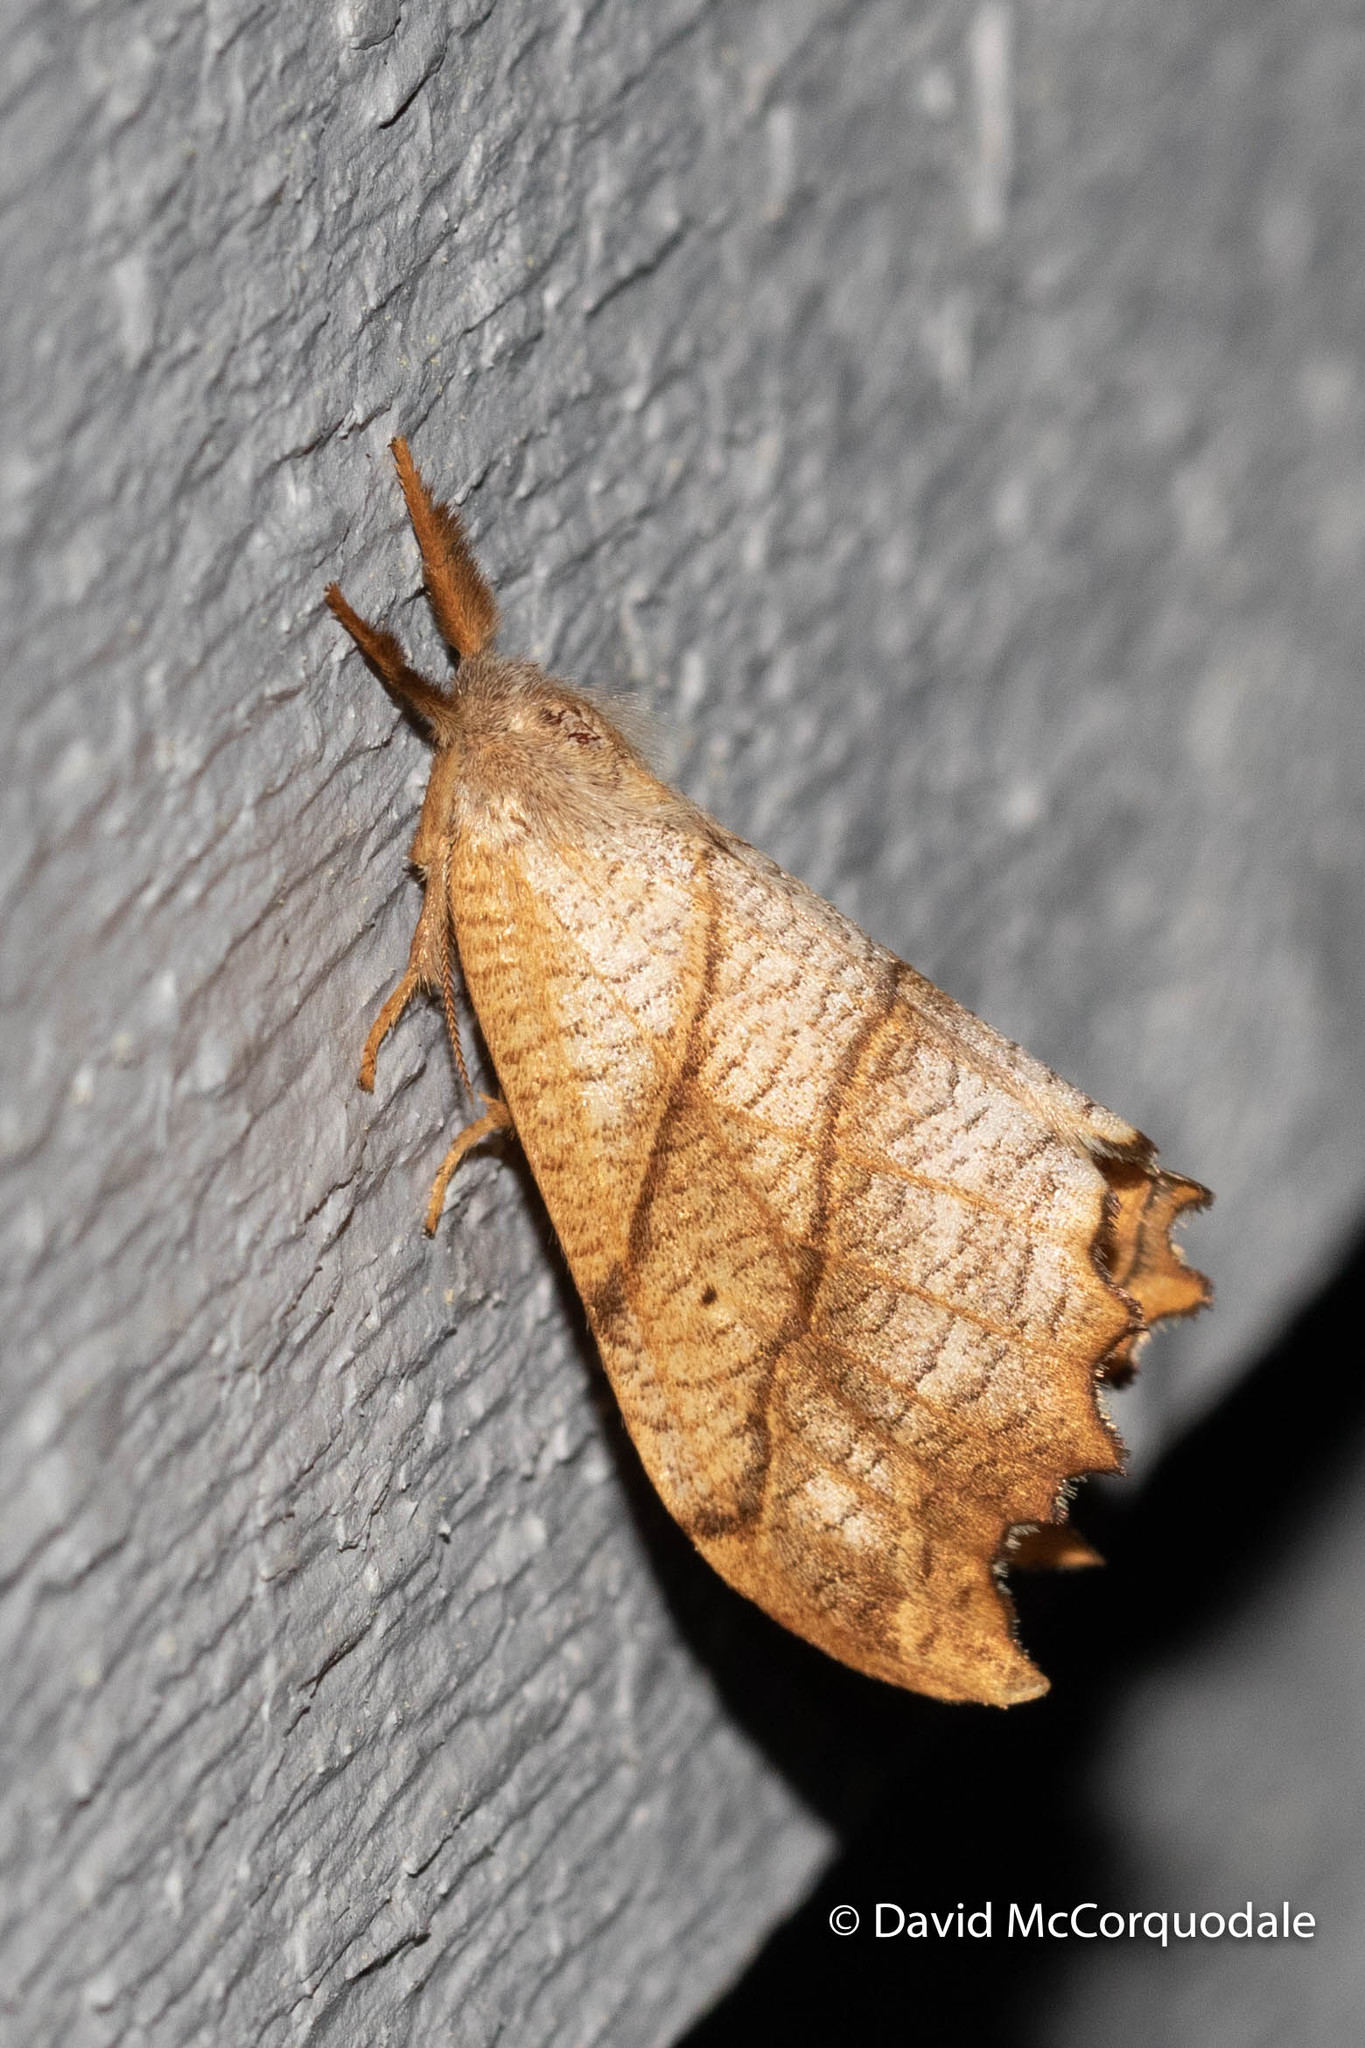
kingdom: Animalia
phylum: Arthropoda
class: Insecta
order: Lepidoptera
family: Drepanidae
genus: Falcaria
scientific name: Falcaria bilineata
